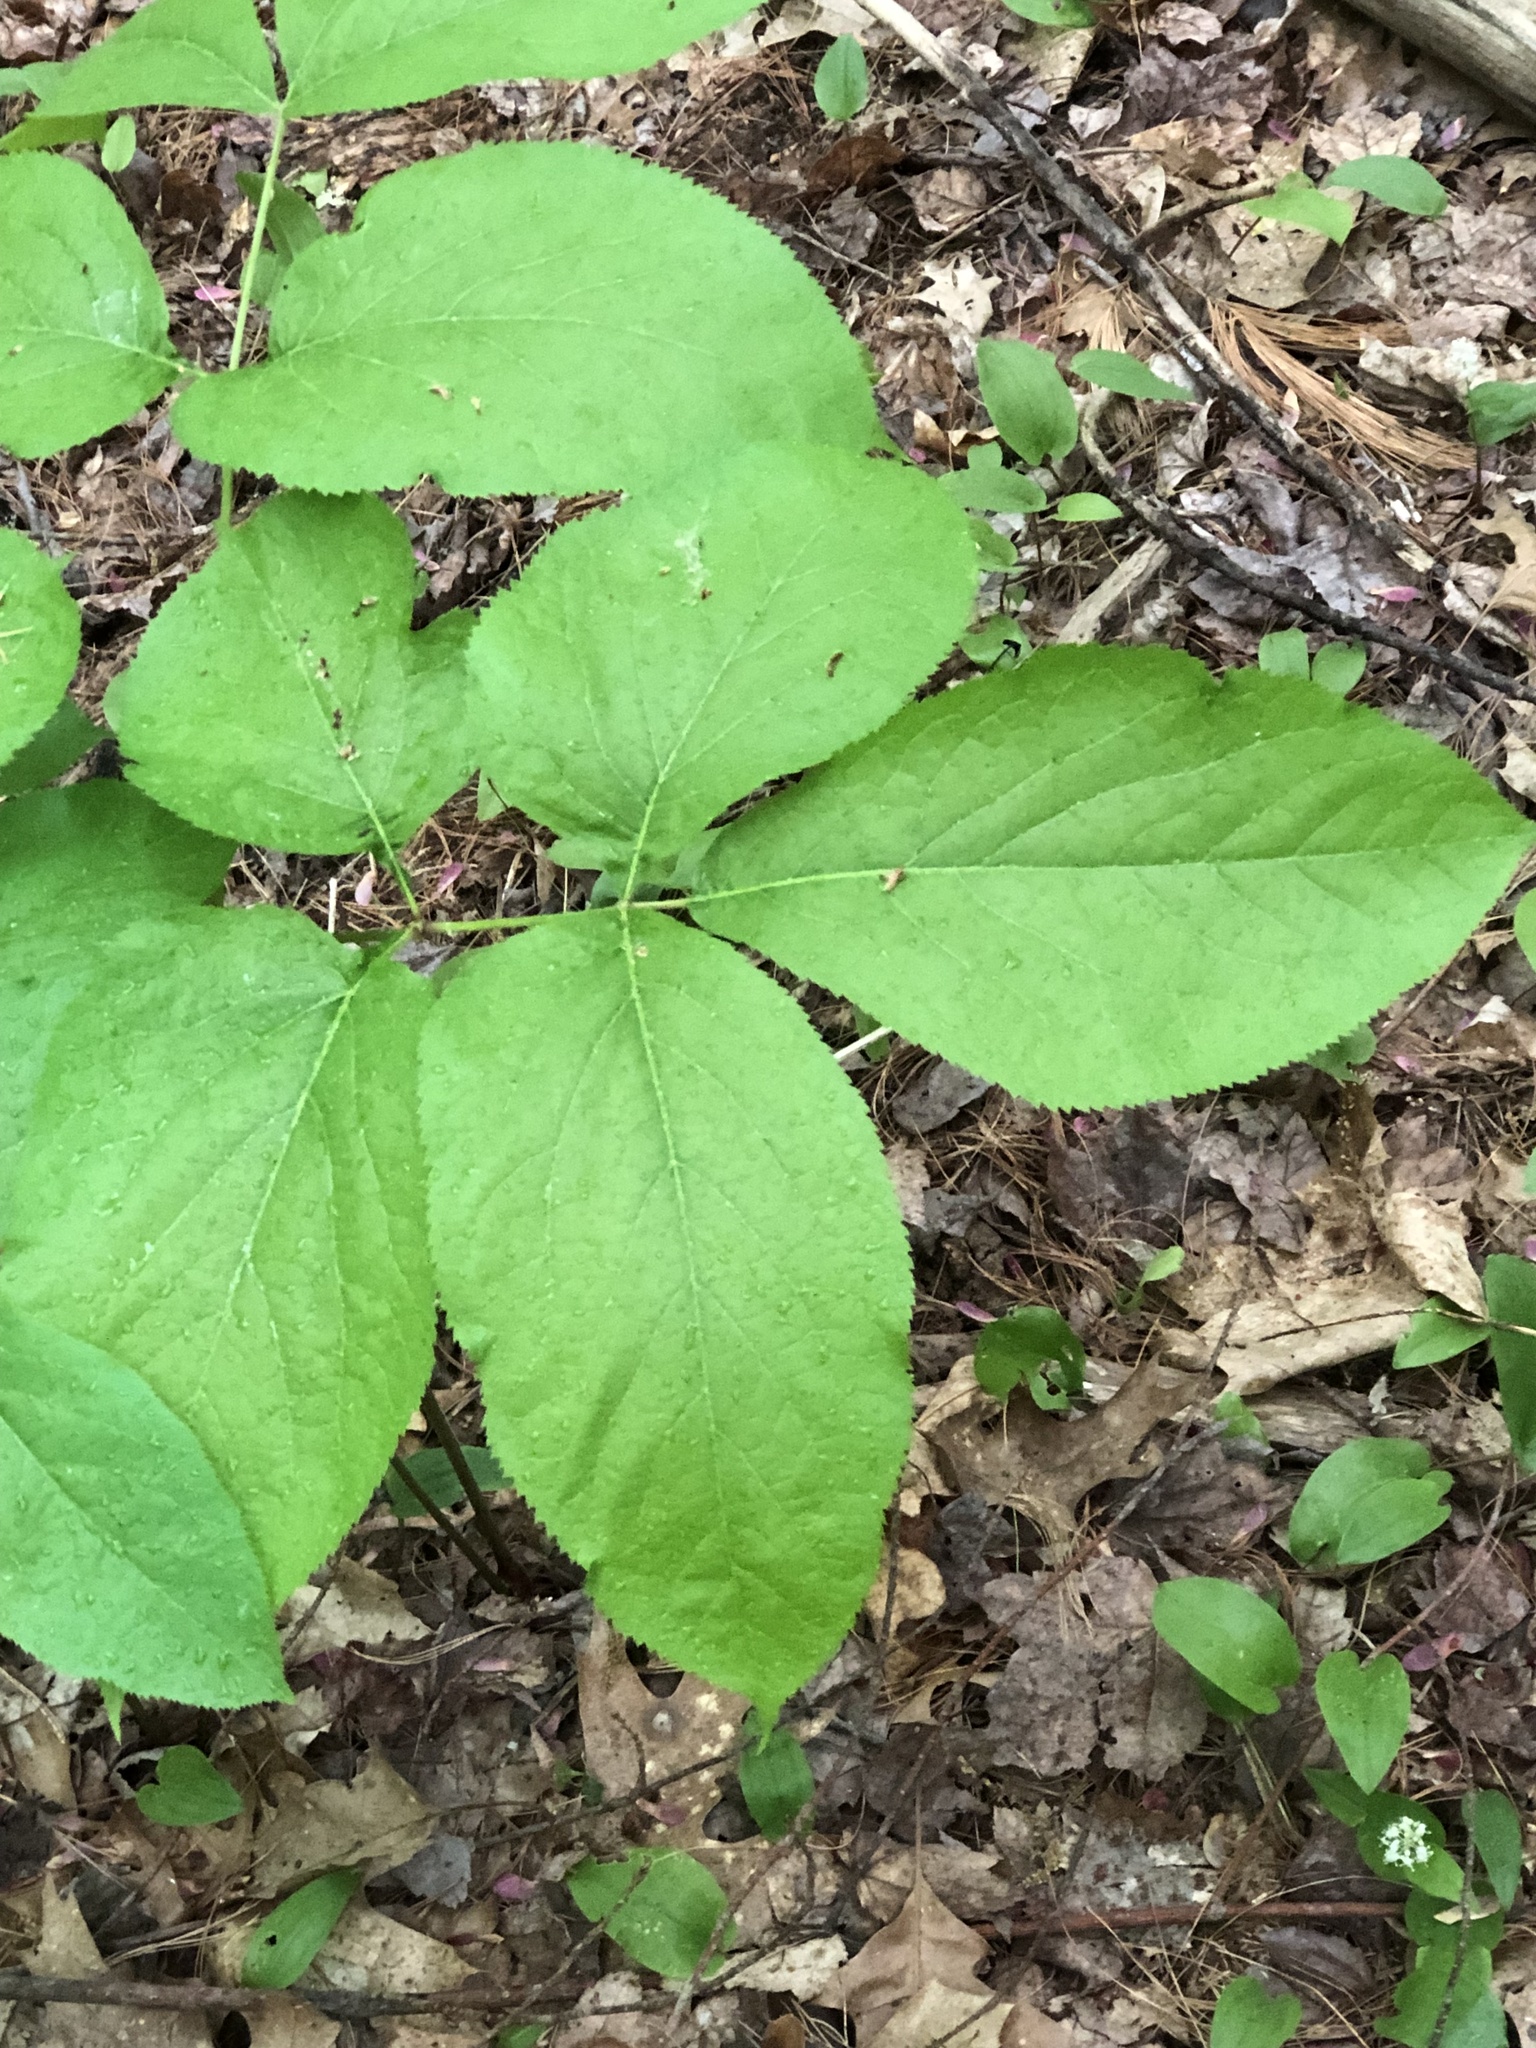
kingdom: Plantae
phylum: Tracheophyta
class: Magnoliopsida
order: Apiales
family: Araliaceae
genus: Aralia
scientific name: Aralia nudicaulis
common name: Wild sarsaparilla
